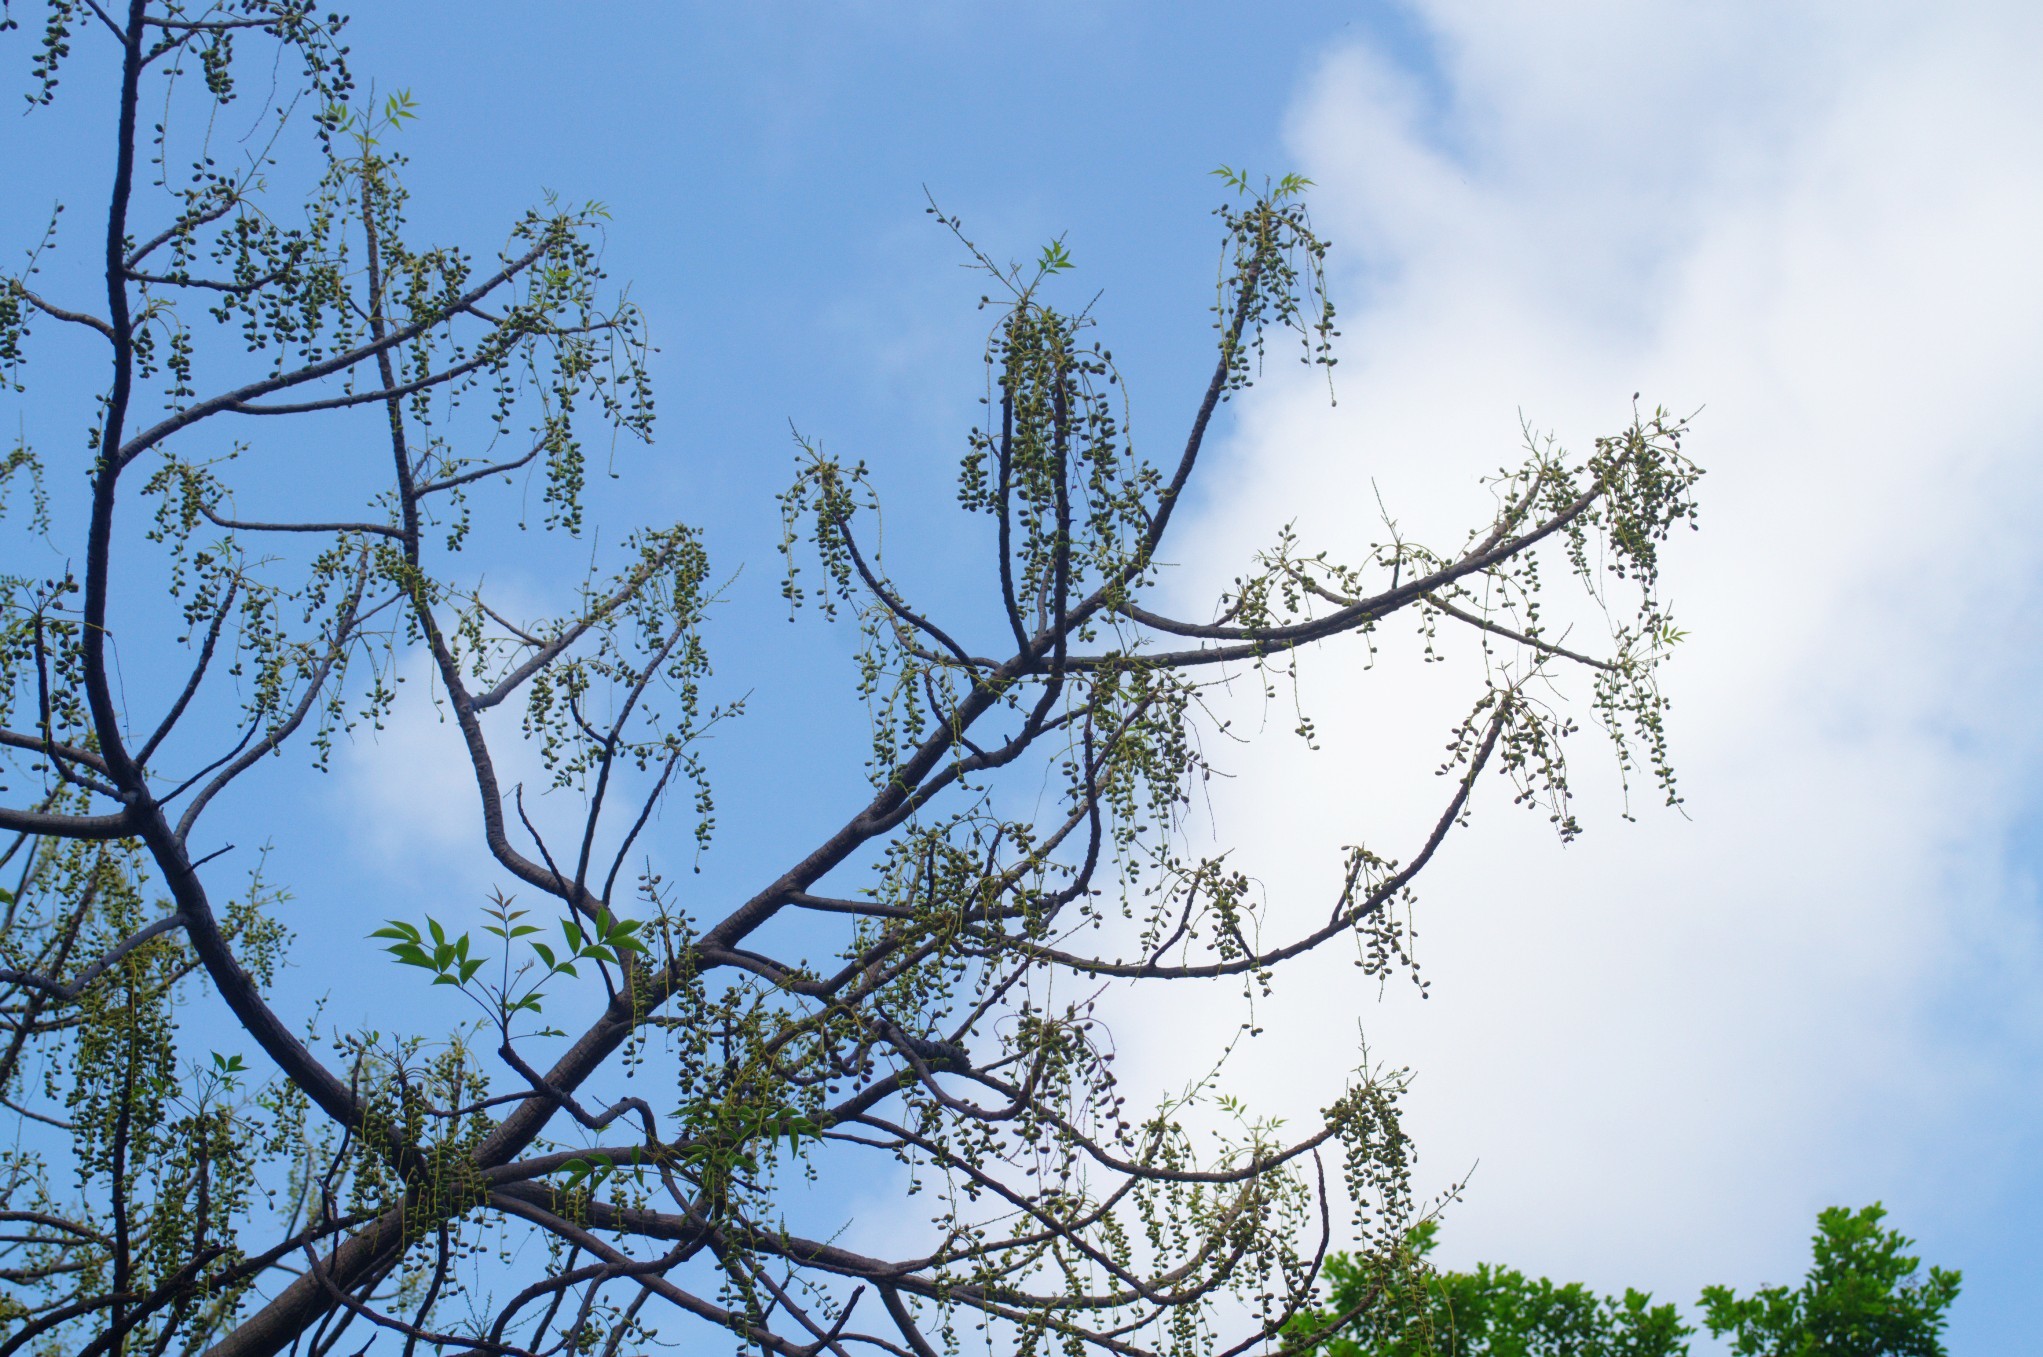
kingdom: Plantae
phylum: Tracheophyta
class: Magnoliopsida
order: Sapindales
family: Burseraceae
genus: Garuga
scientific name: Garuga floribunda
